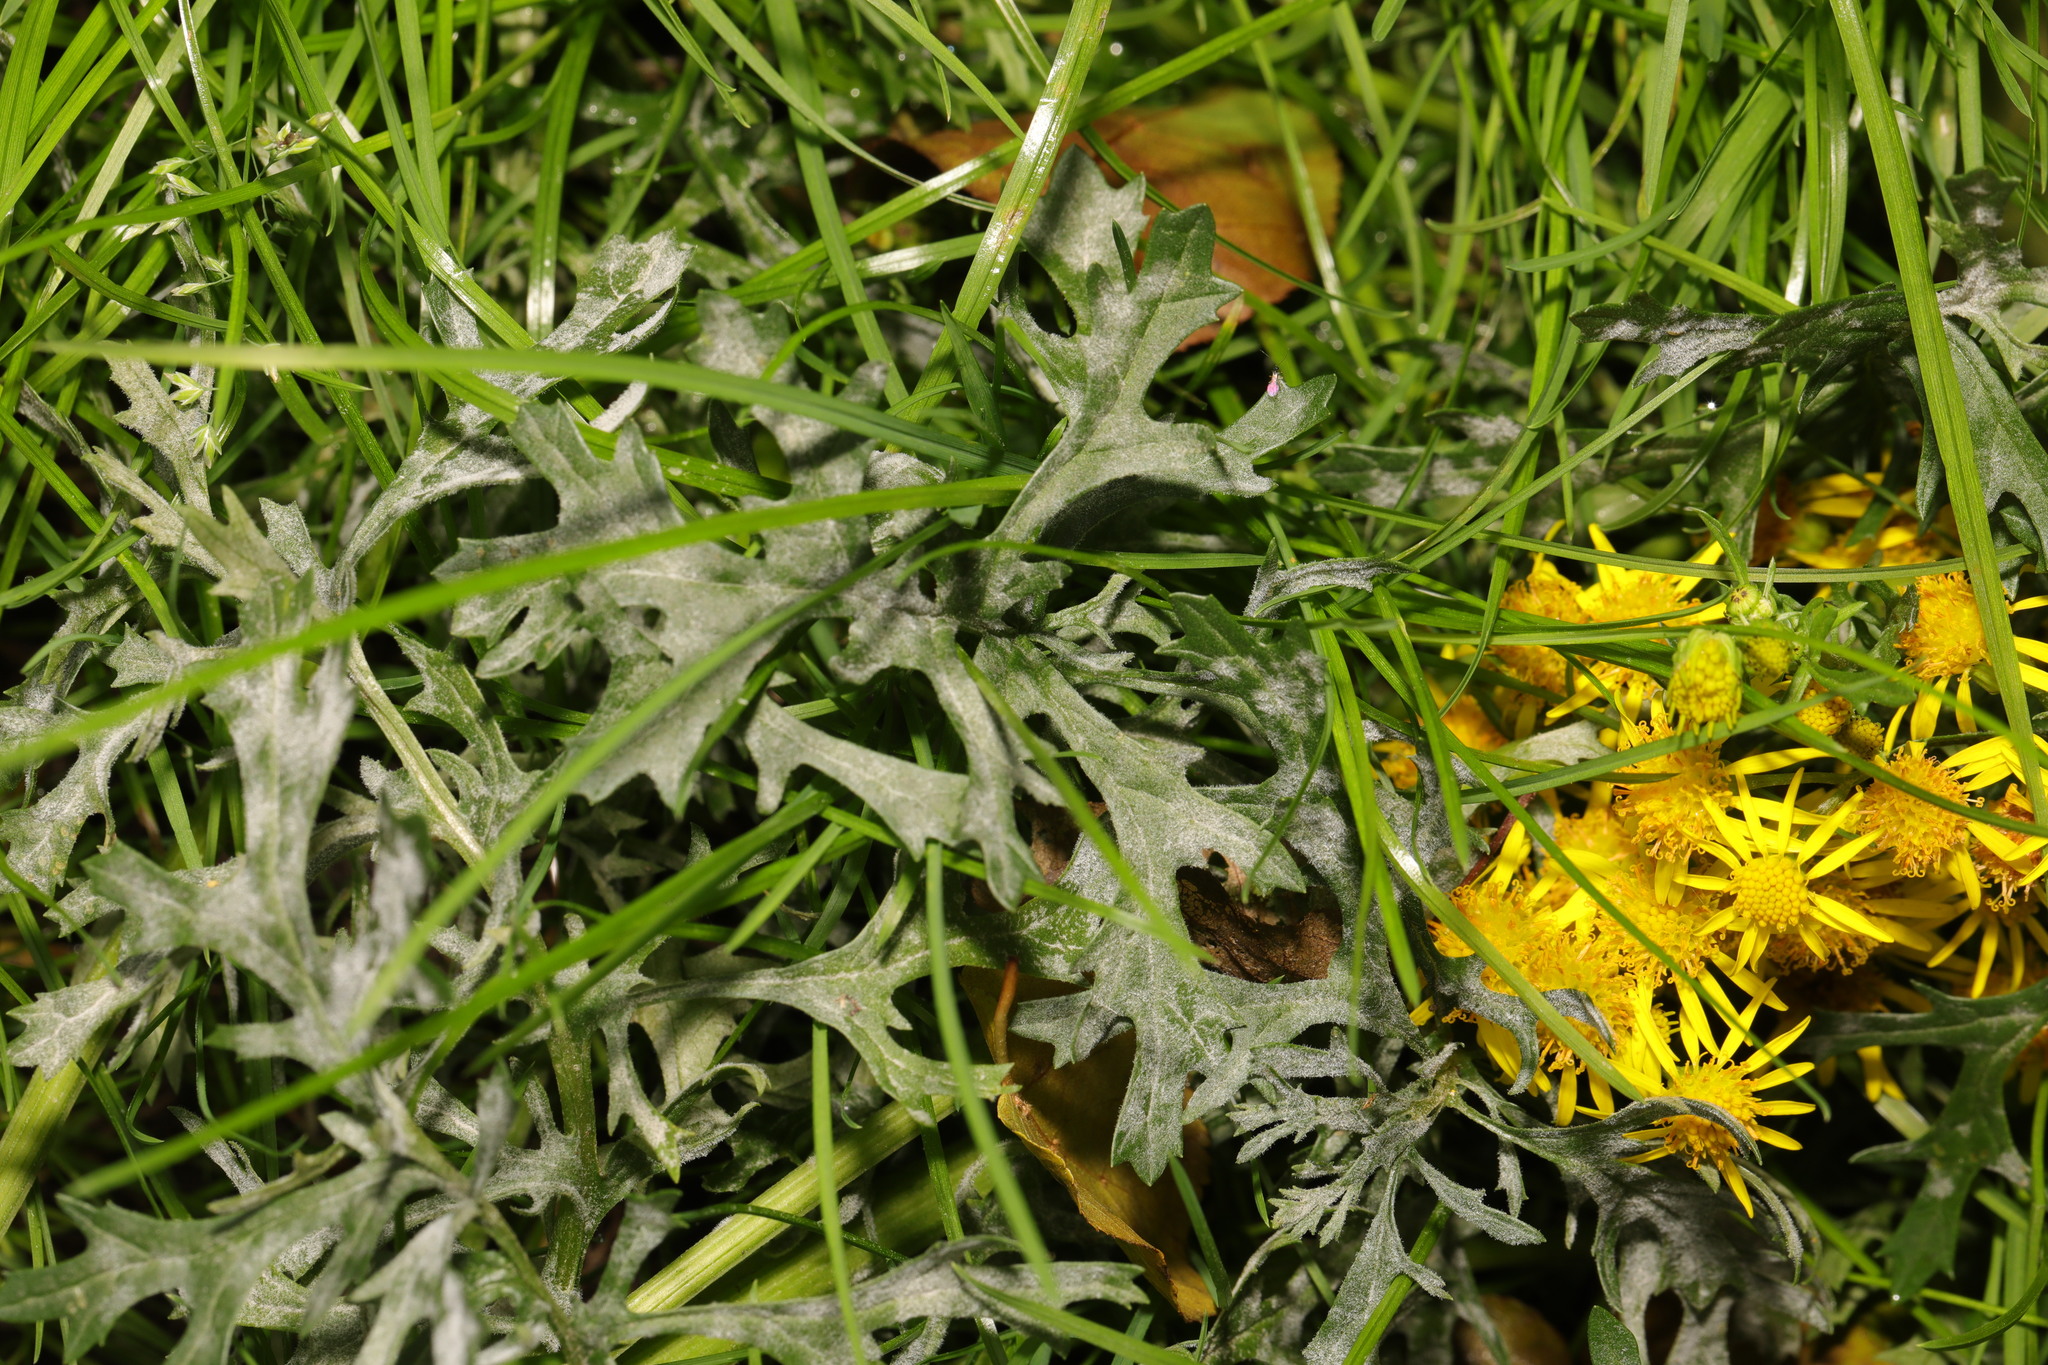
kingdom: Plantae
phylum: Tracheophyta
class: Magnoliopsida
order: Asterales
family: Asteraceae
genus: Jacobaea
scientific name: Jacobaea vulgaris
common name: Stinking willie
